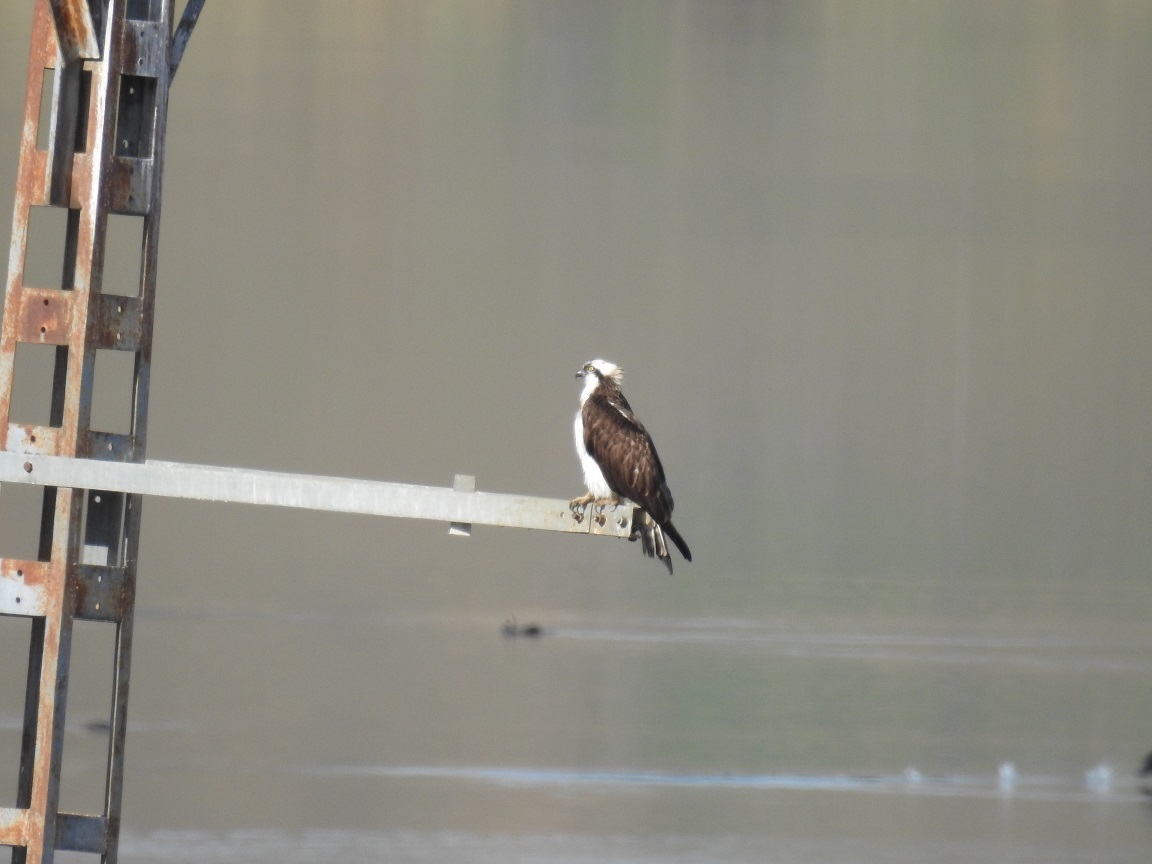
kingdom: Animalia
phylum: Chordata
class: Aves
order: Accipitriformes
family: Pandionidae
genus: Pandion
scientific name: Pandion haliaetus
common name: Osprey
